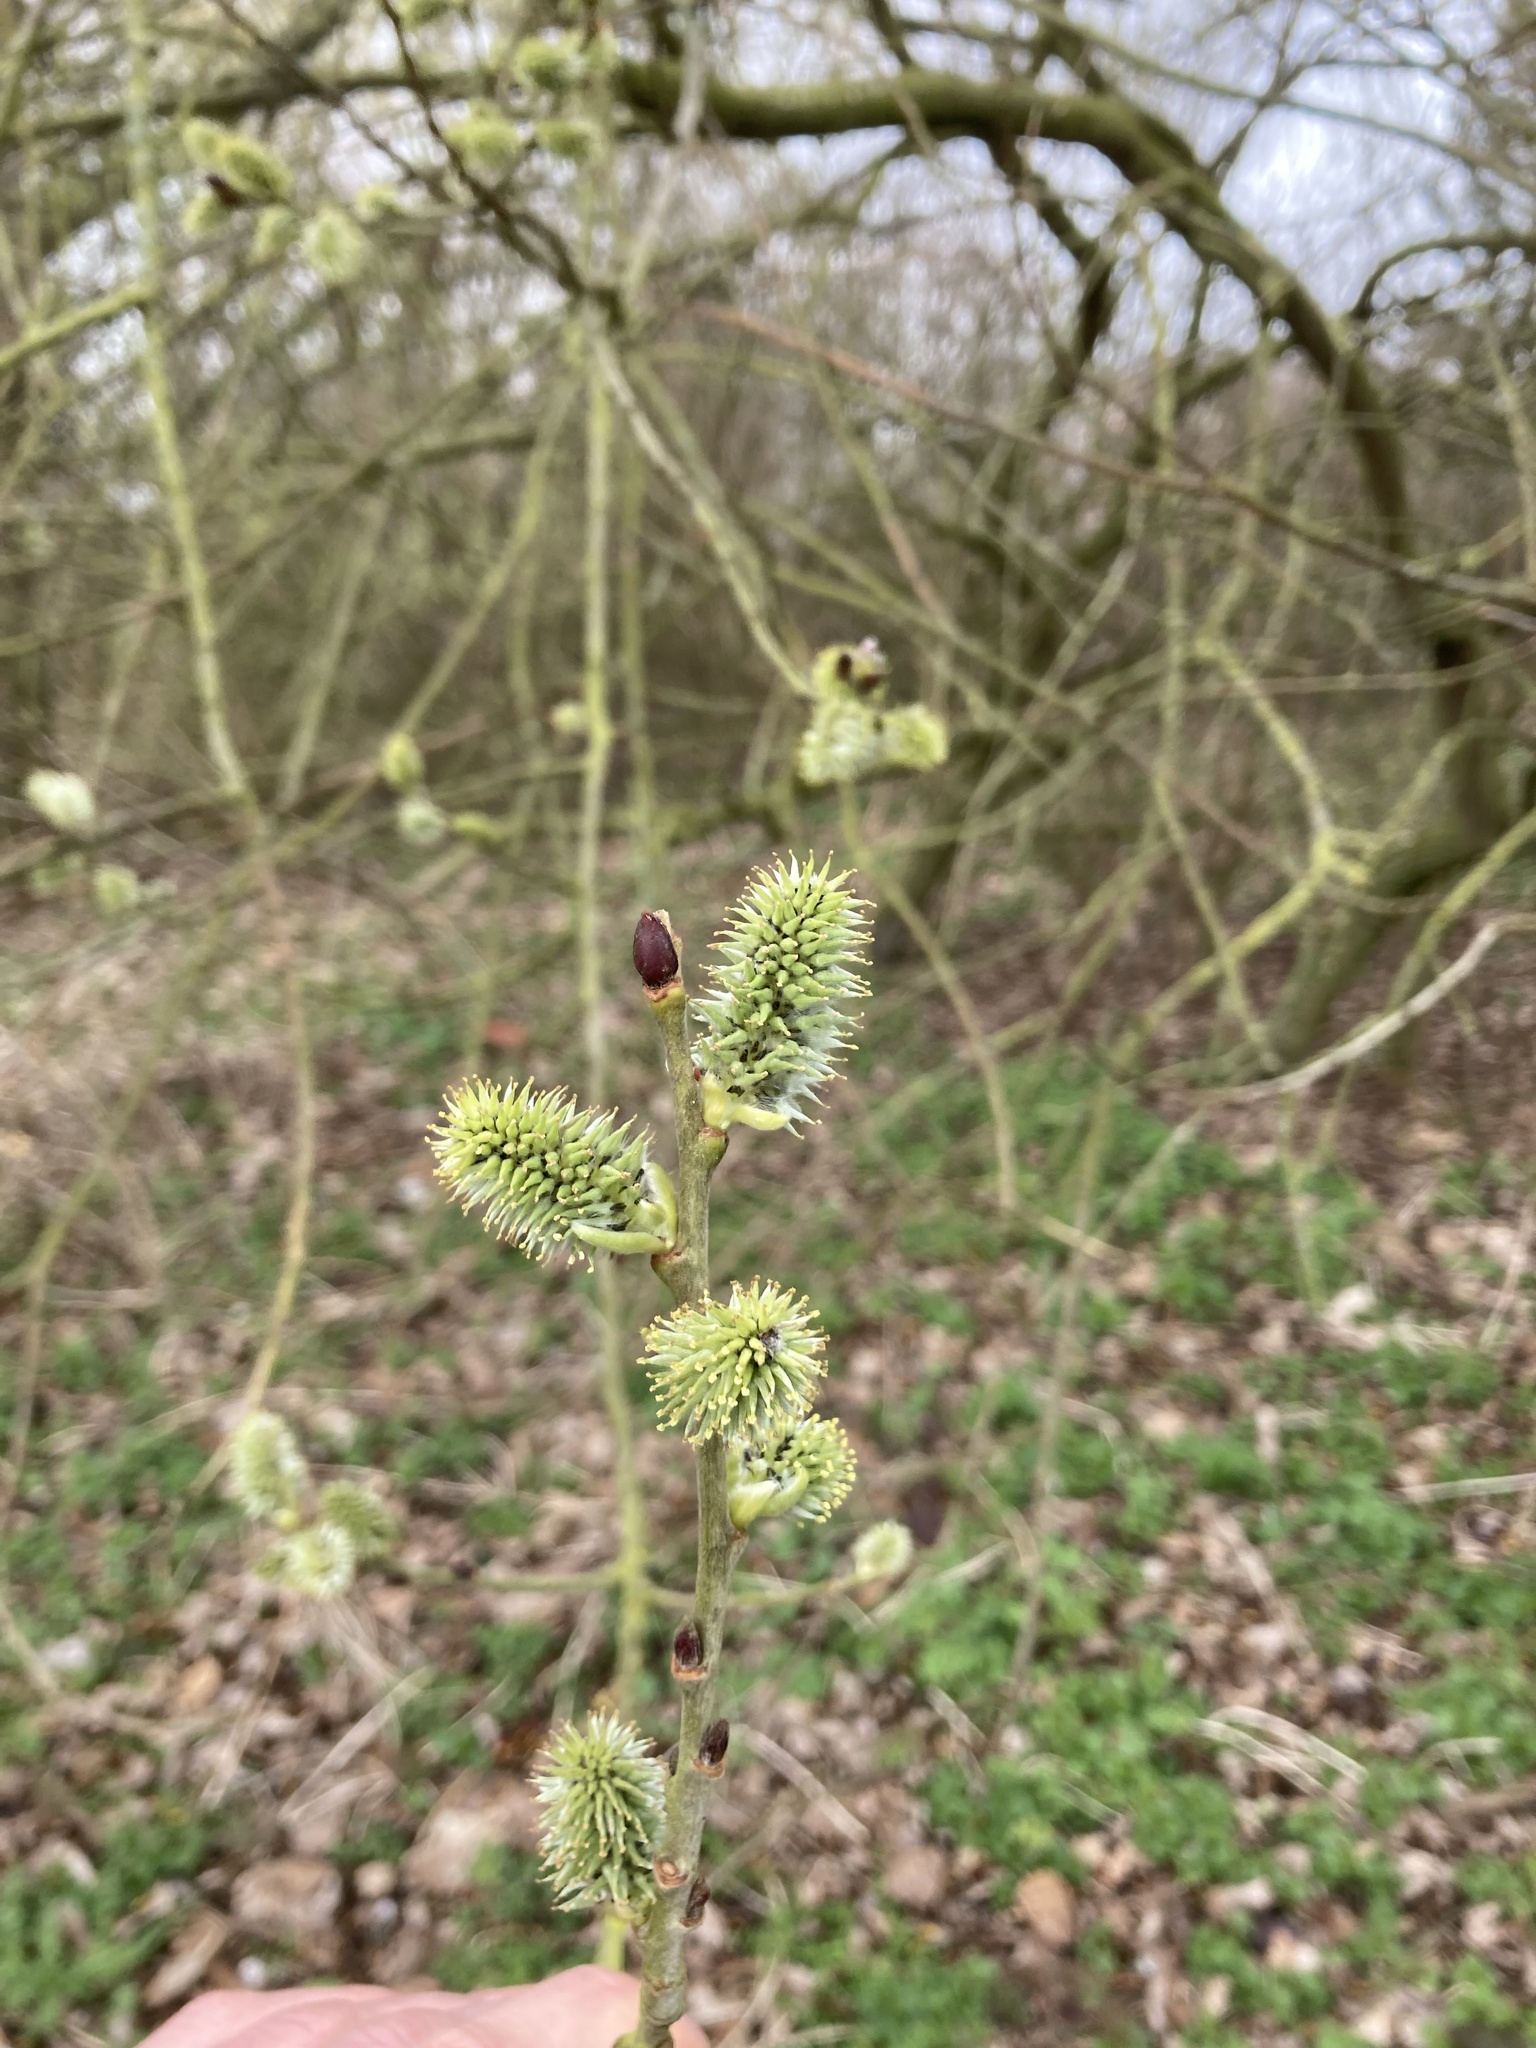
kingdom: Plantae
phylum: Tracheophyta
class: Magnoliopsida
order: Malpighiales
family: Salicaceae
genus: Salix
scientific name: Salix caprea
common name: Goat willow
